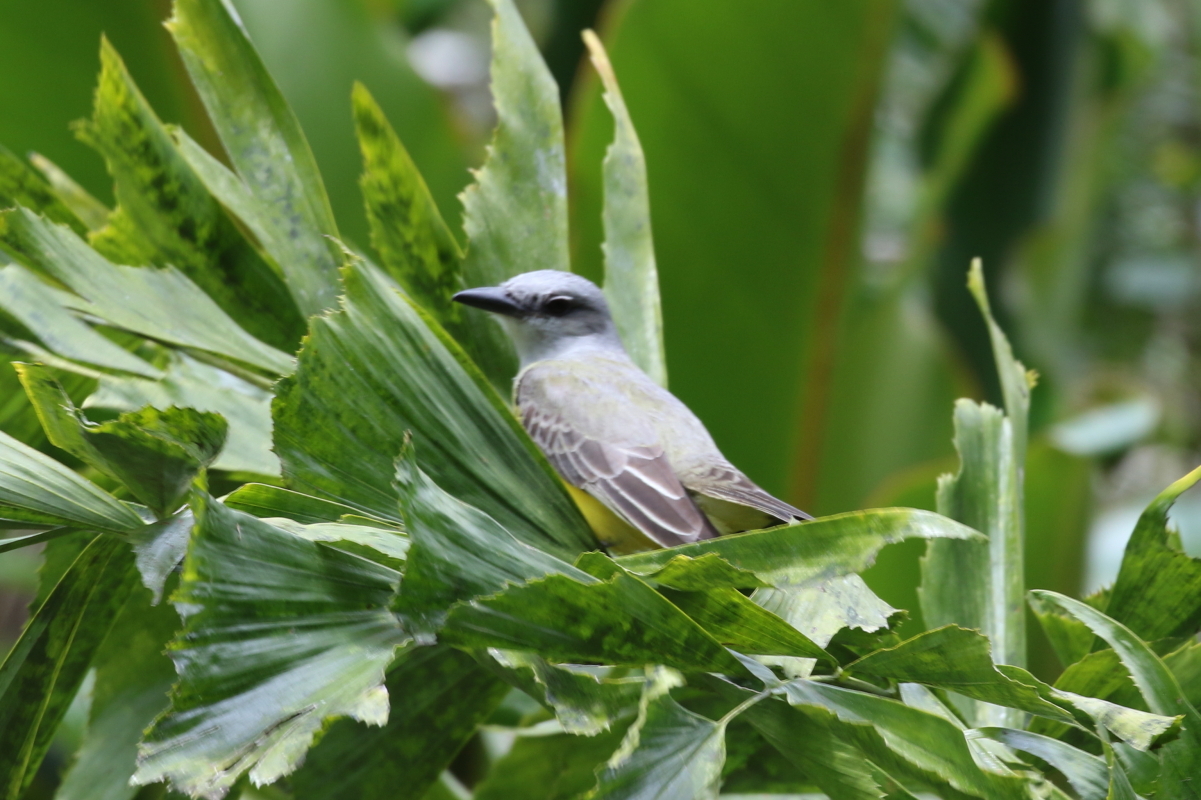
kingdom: Animalia
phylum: Chordata
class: Aves
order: Passeriformes
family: Tyrannidae
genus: Tyrannus
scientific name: Tyrannus melancholicus
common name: Tropical kingbird
